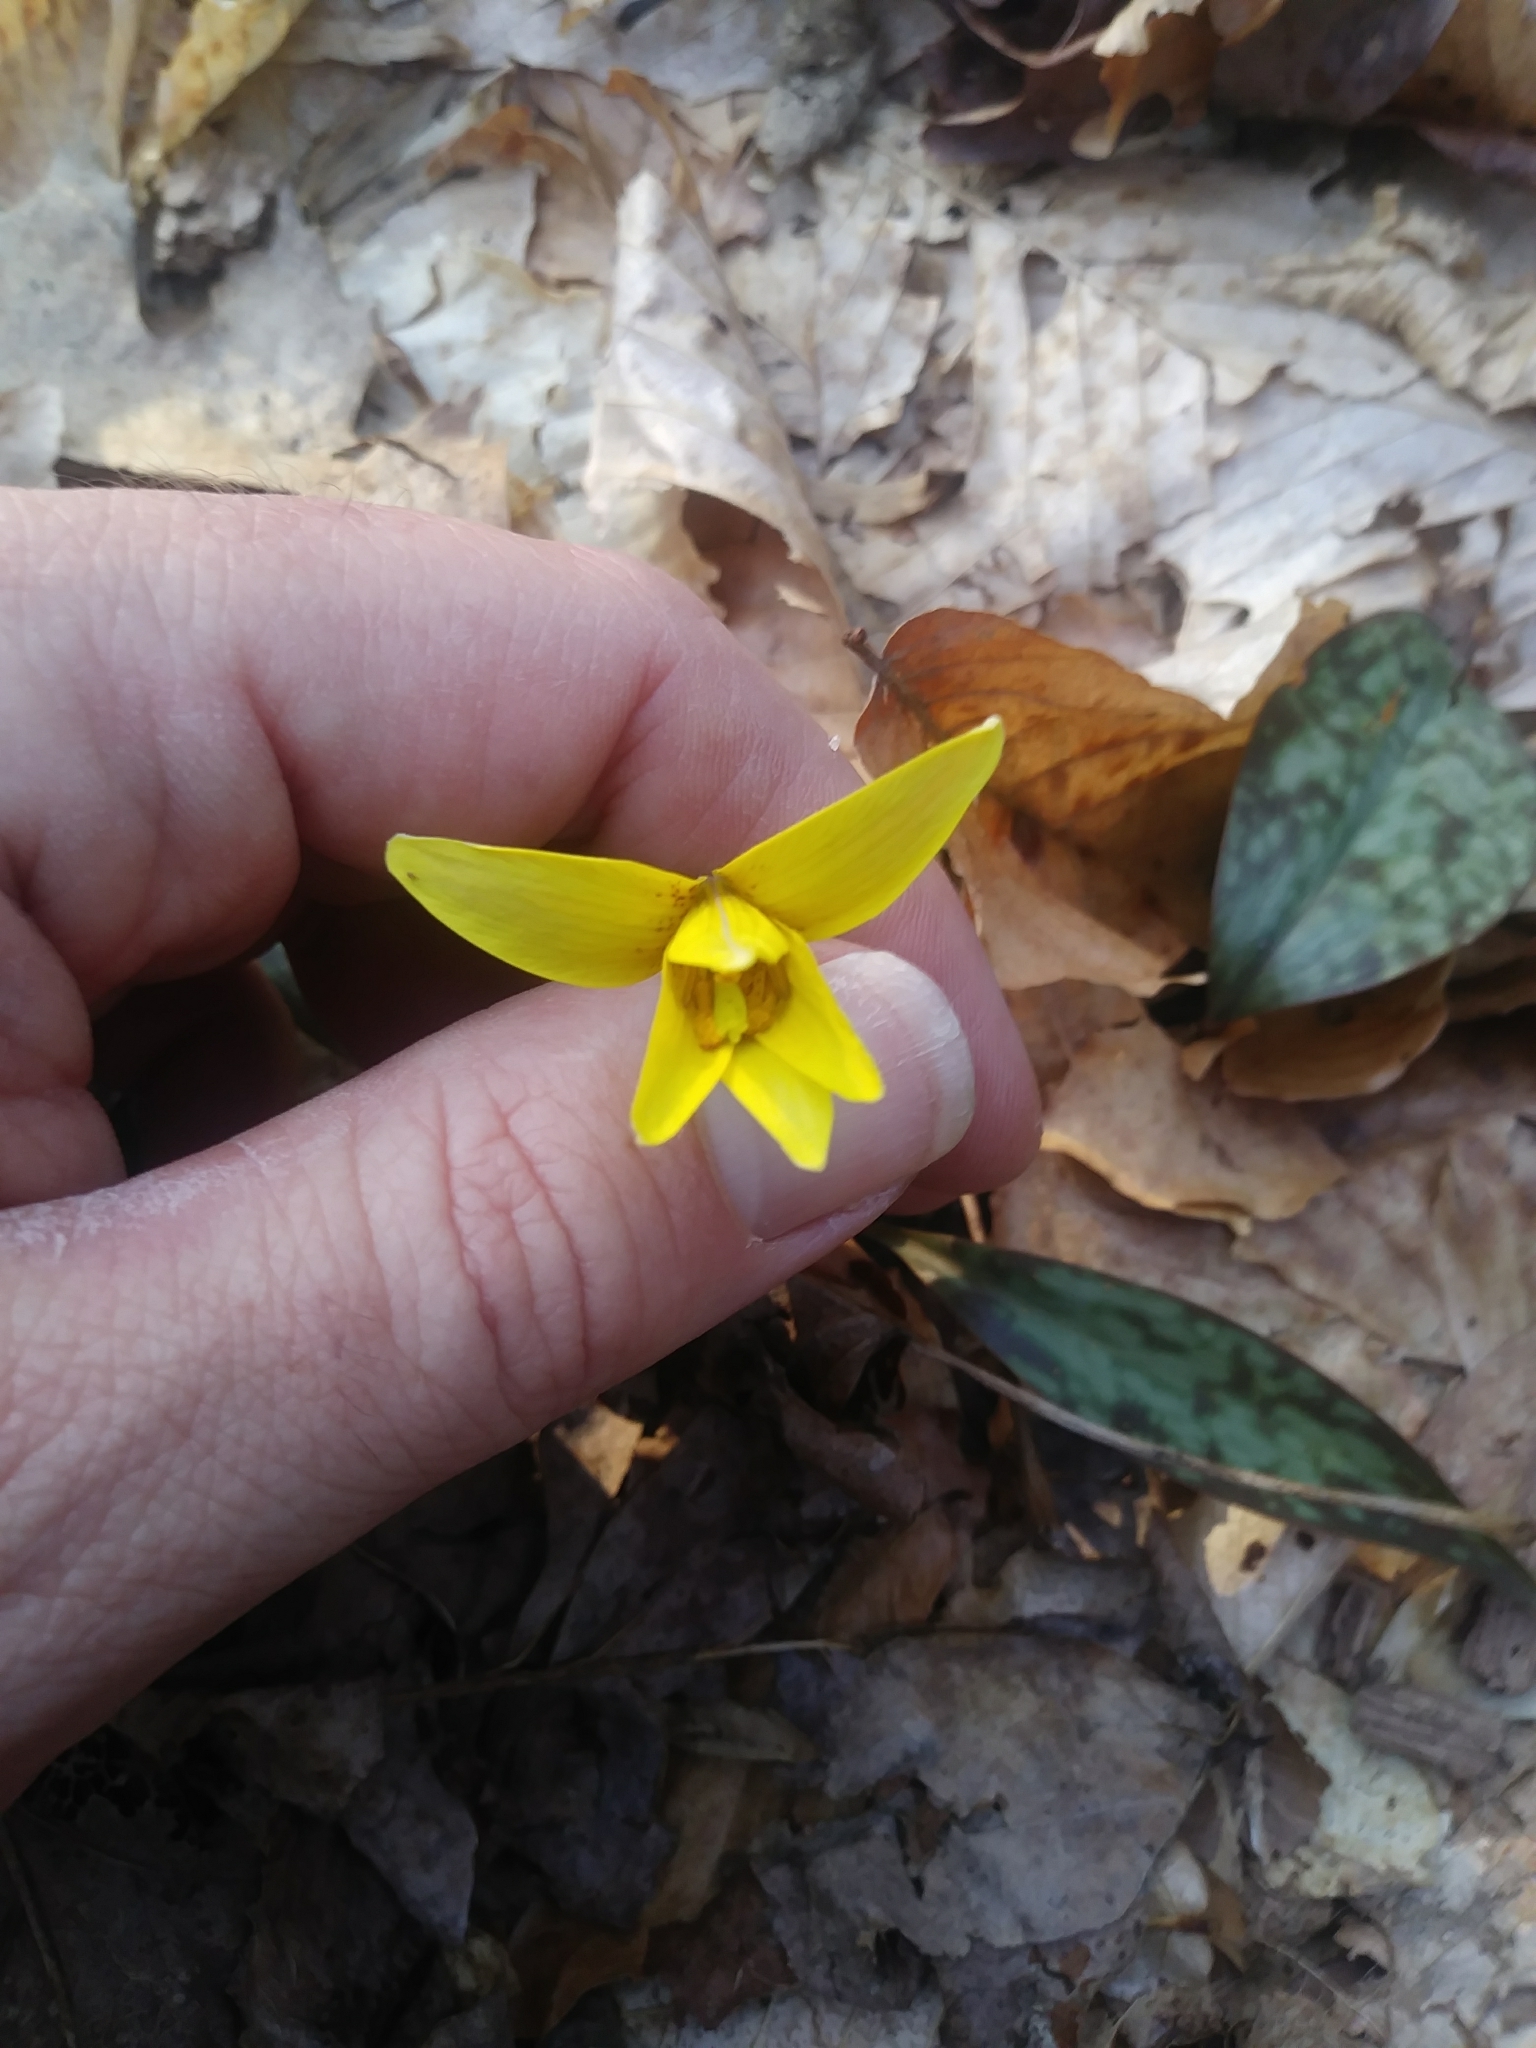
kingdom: Plantae
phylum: Tracheophyta
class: Liliopsida
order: Liliales
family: Liliaceae
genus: Erythronium
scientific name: Erythronium americanum
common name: Yellow adder's-tongue
